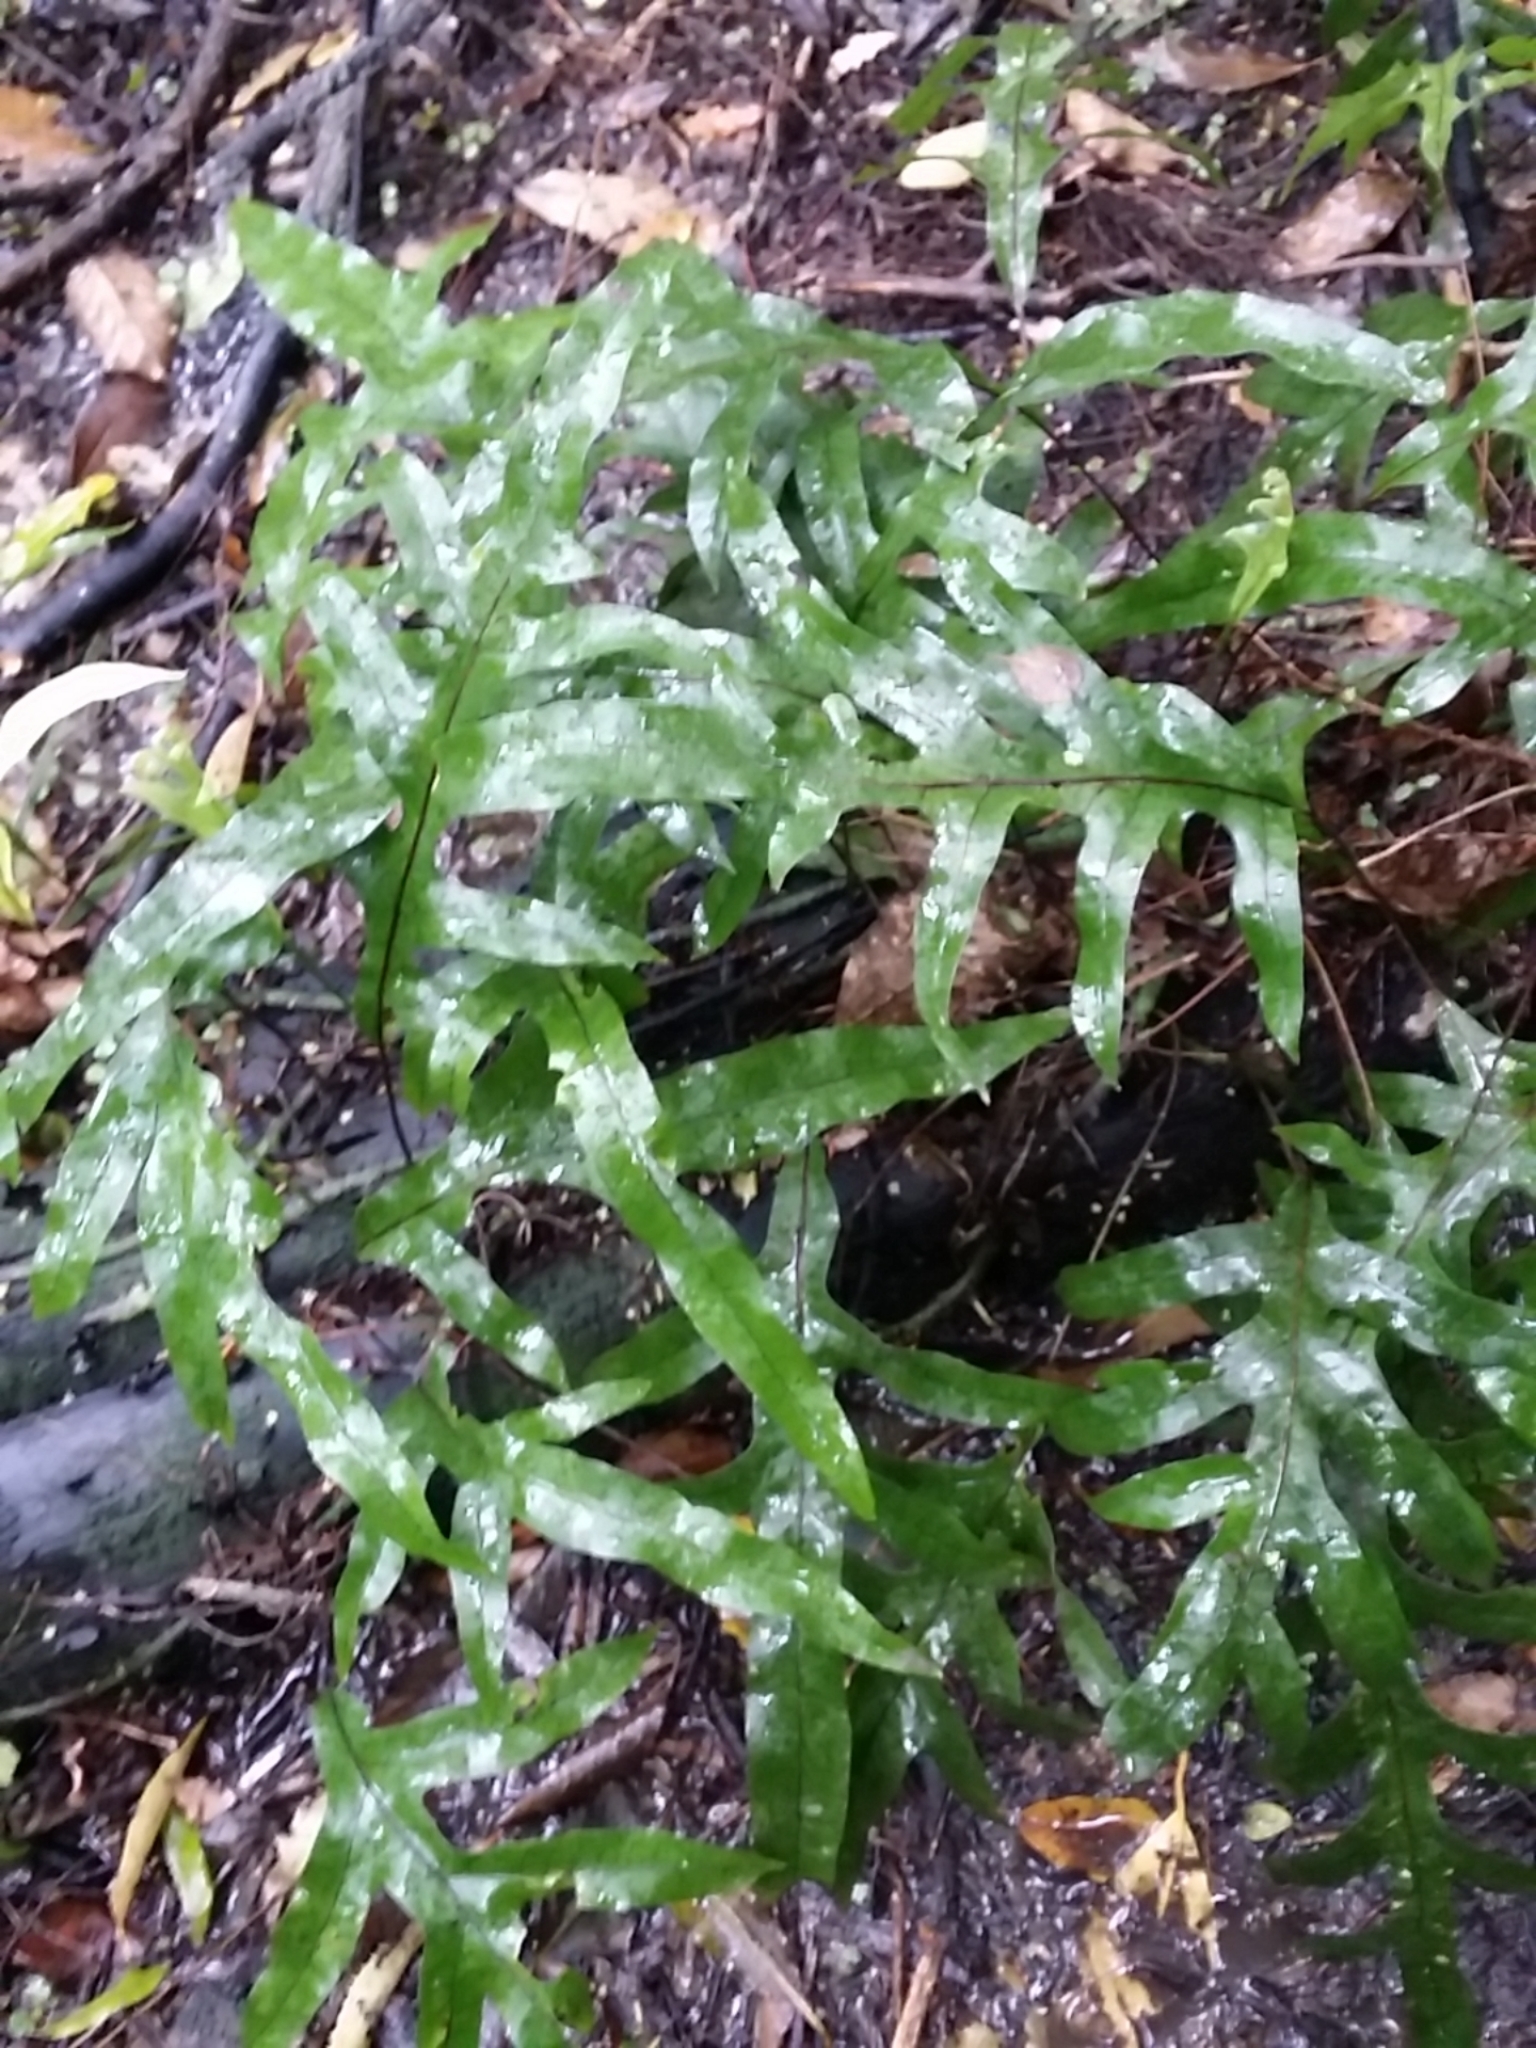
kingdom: Plantae
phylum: Tracheophyta
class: Polypodiopsida
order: Polypodiales
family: Polypodiaceae
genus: Lecanopteris
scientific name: Lecanopteris pustulata
